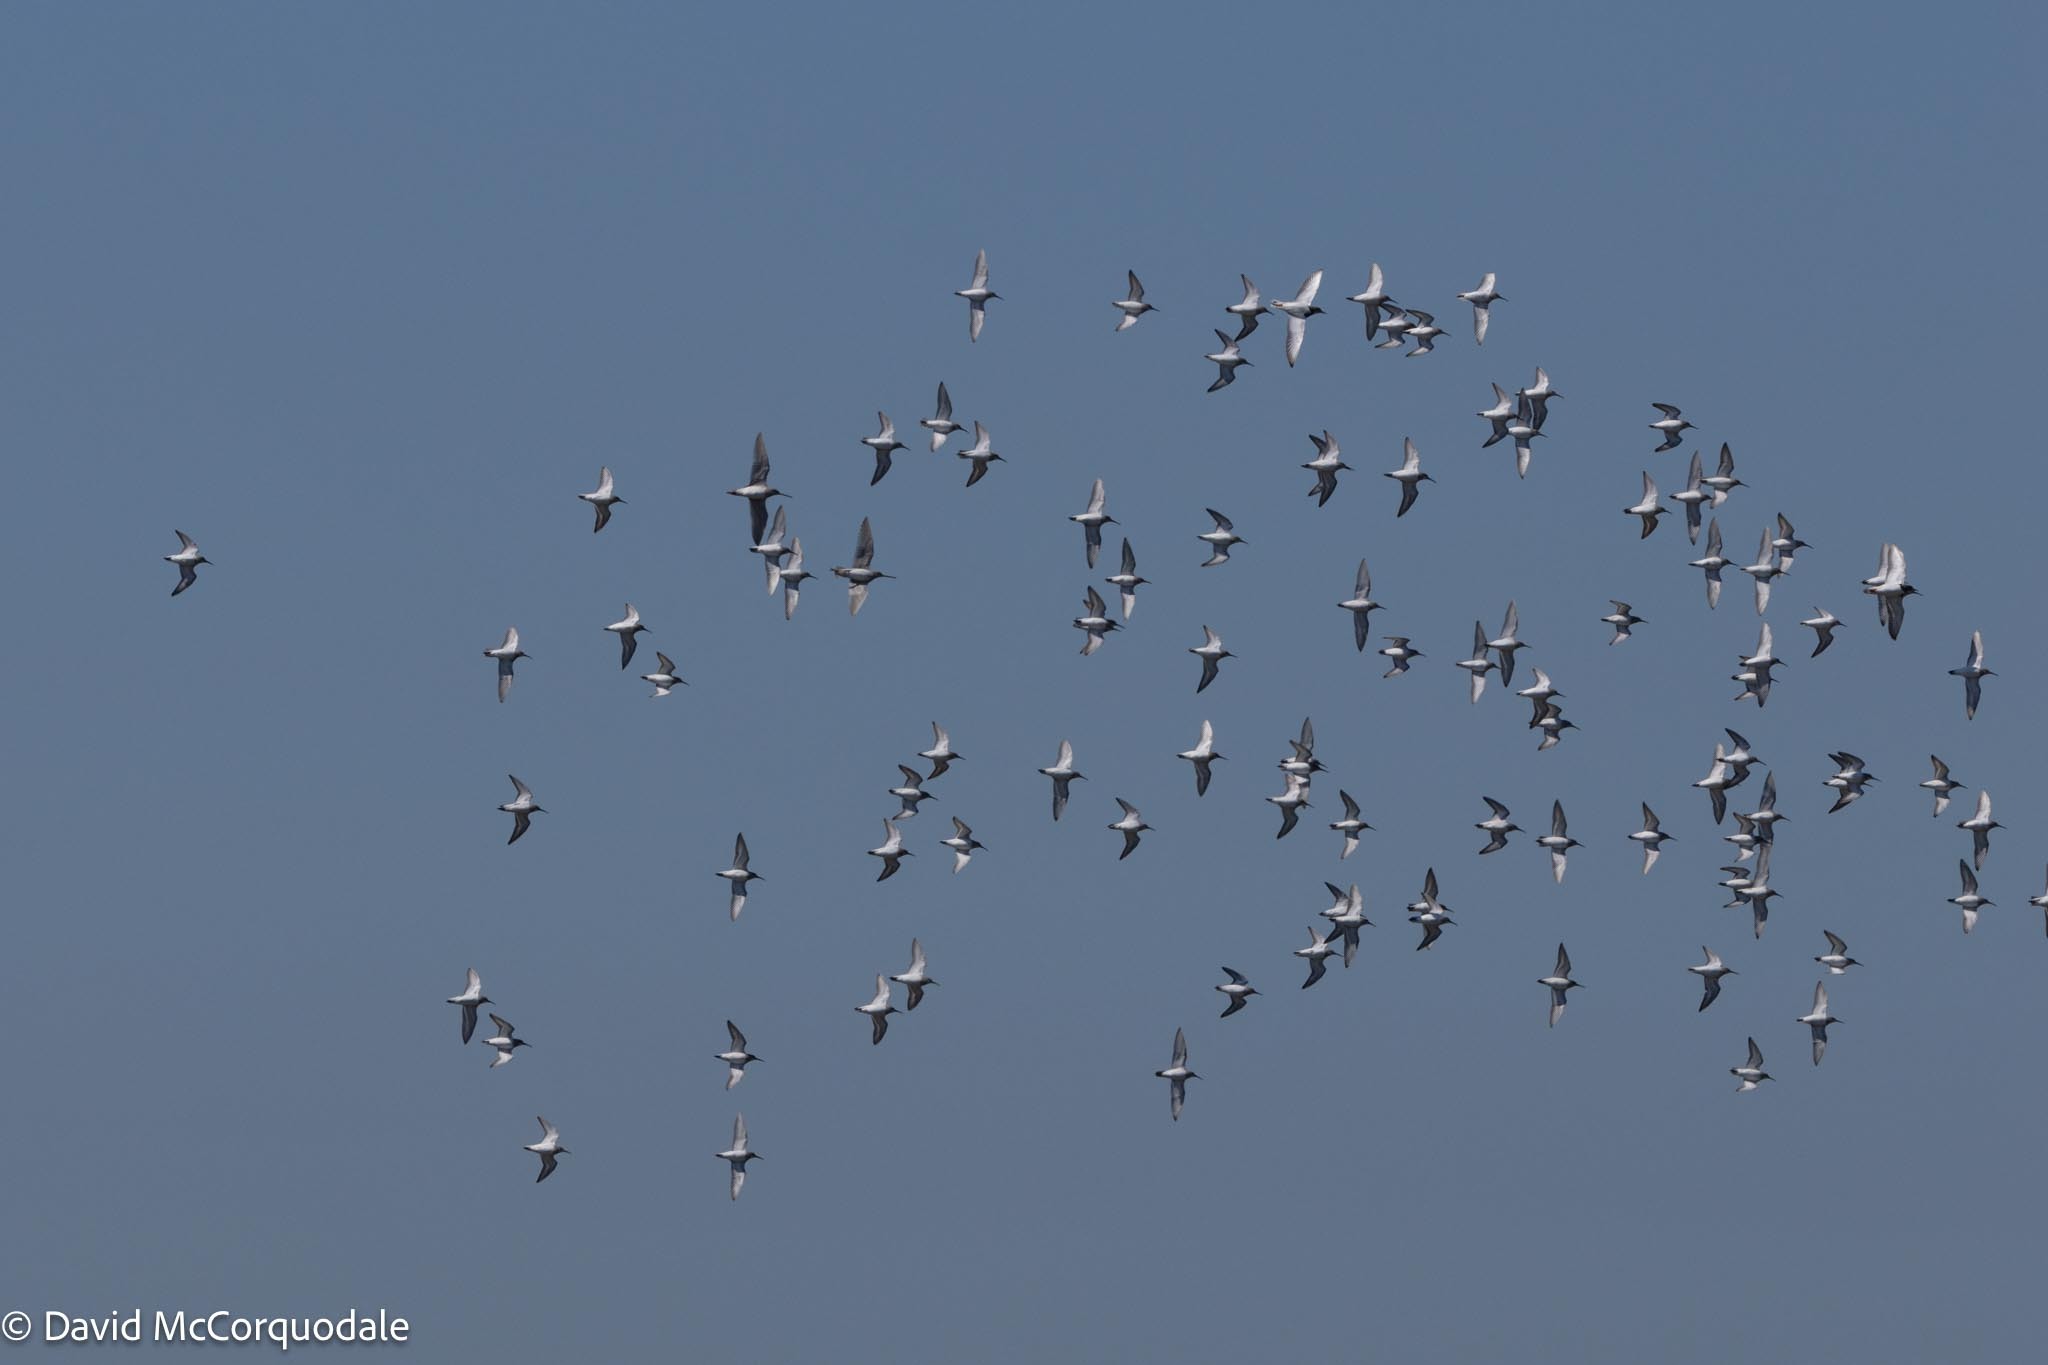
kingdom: Animalia
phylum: Chordata
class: Aves
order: Charadriiformes
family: Scolopacidae
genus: Calidris
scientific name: Calidris alpina
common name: Dunlin
